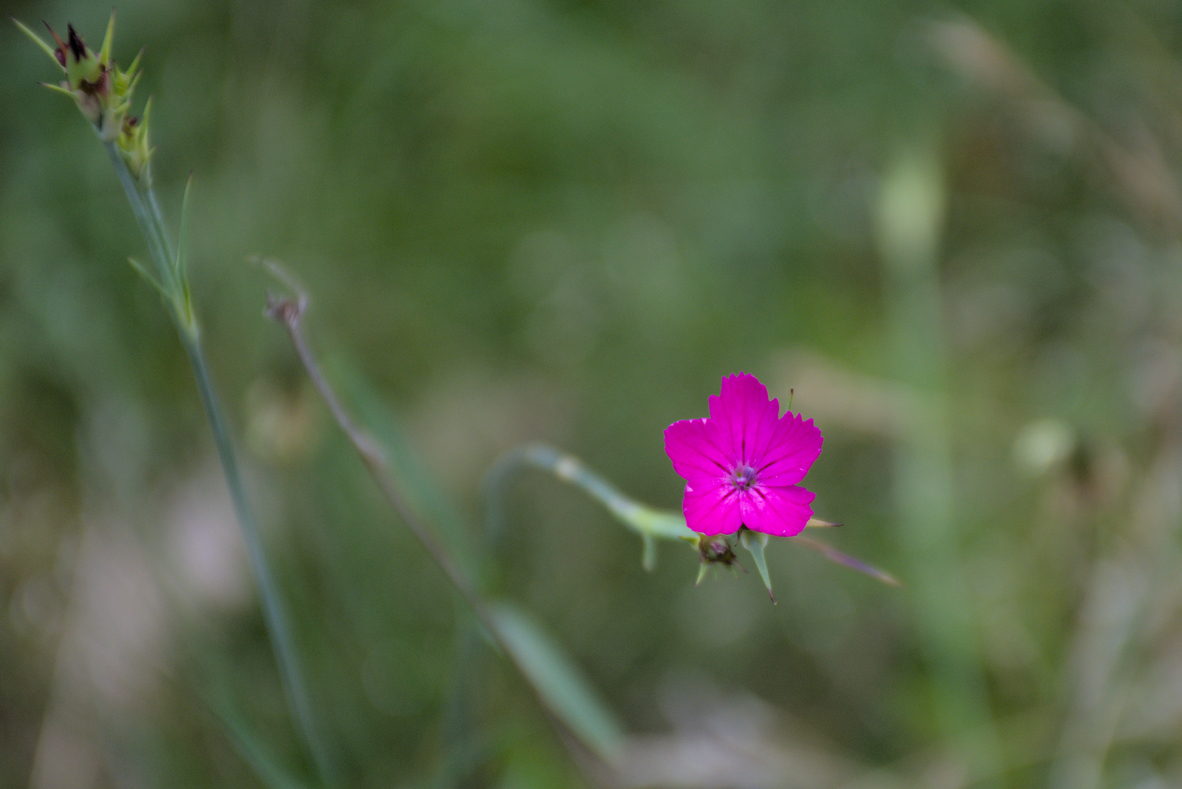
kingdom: Plantae
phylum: Tracheophyta
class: Magnoliopsida
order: Caryophyllales
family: Caryophyllaceae
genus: Dianthus
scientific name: Dianthus carthusianorum
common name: Carthusian pink
